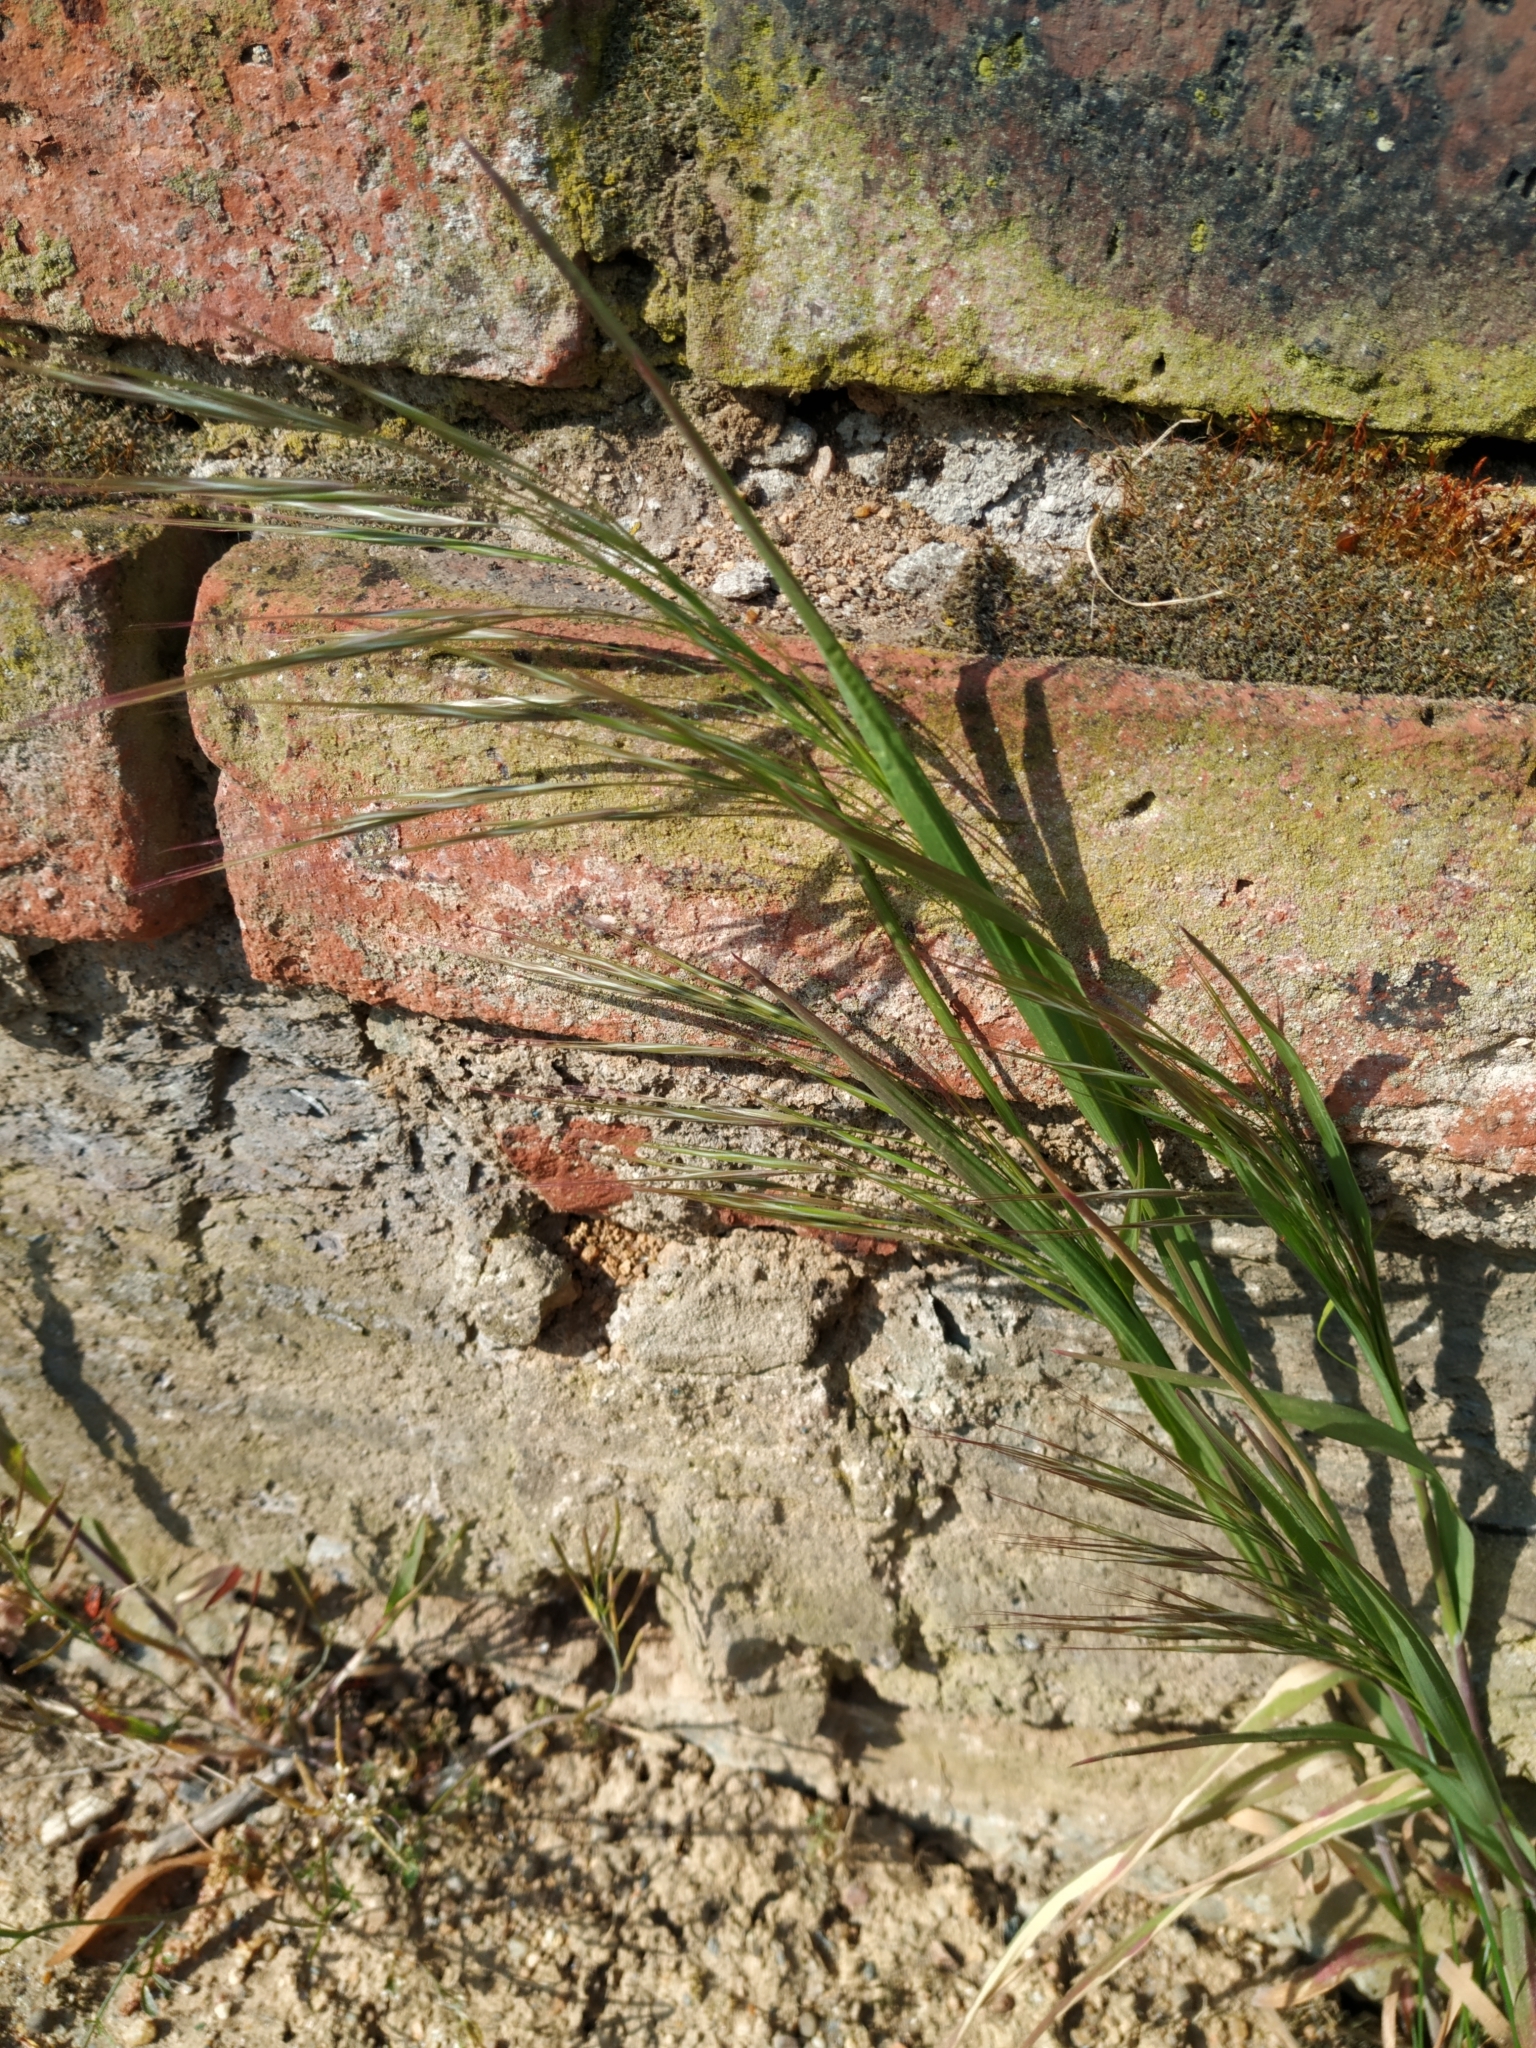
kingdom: Plantae
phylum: Tracheophyta
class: Liliopsida
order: Poales
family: Poaceae
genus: Bromus
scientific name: Bromus sterilis
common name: Poverty brome
